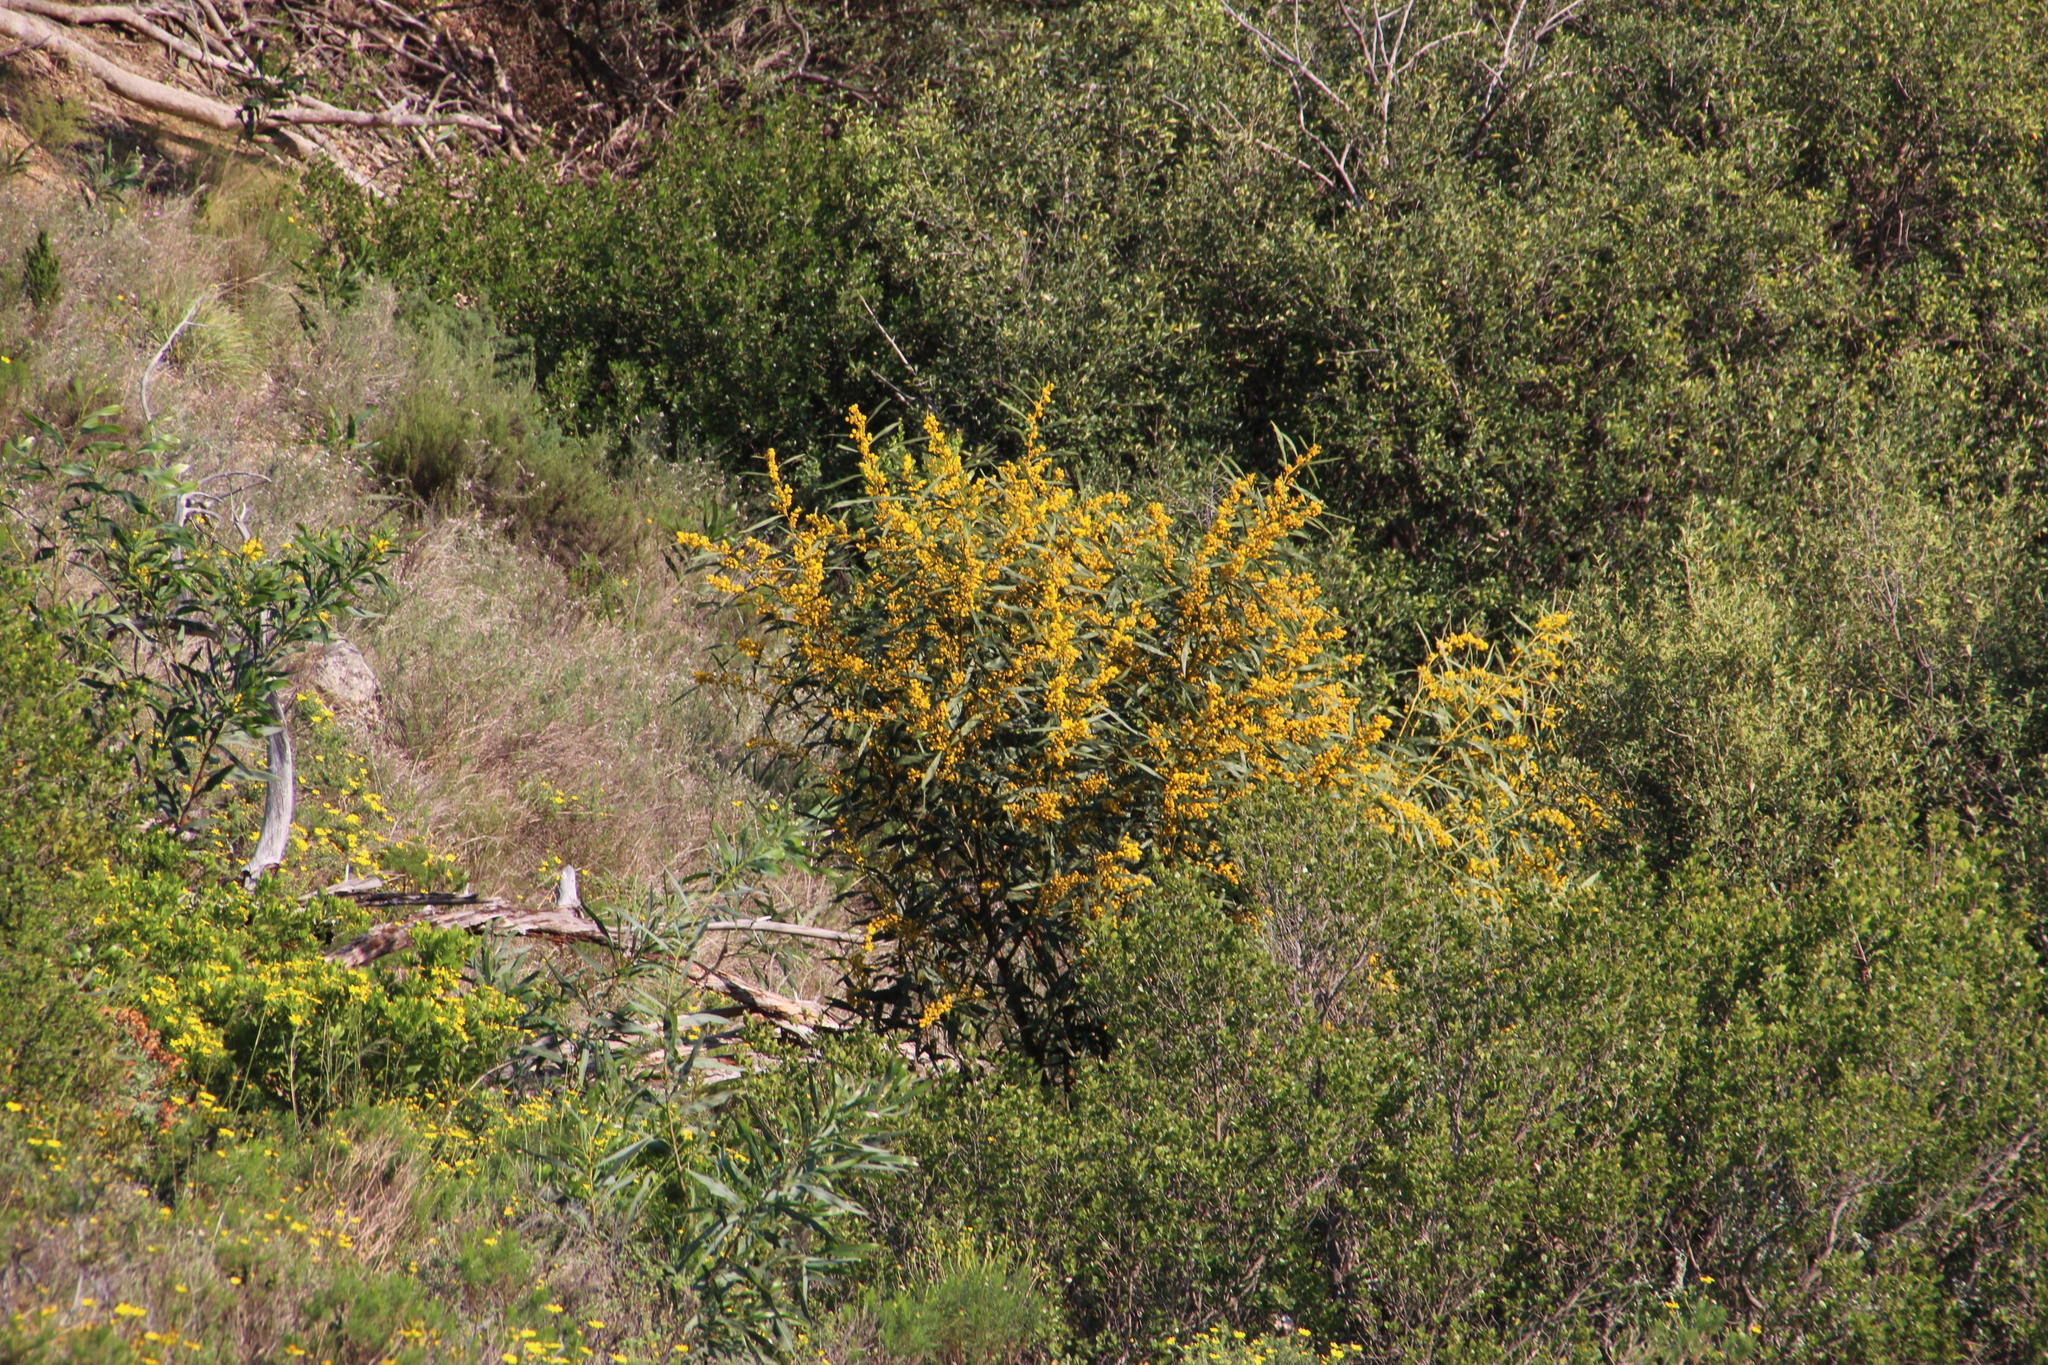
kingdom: Plantae
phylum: Tracheophyta
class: Magnoliopsida
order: Fabales
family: Fabaceae
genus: Acacia
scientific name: Acacia saligna
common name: Orange wattle
